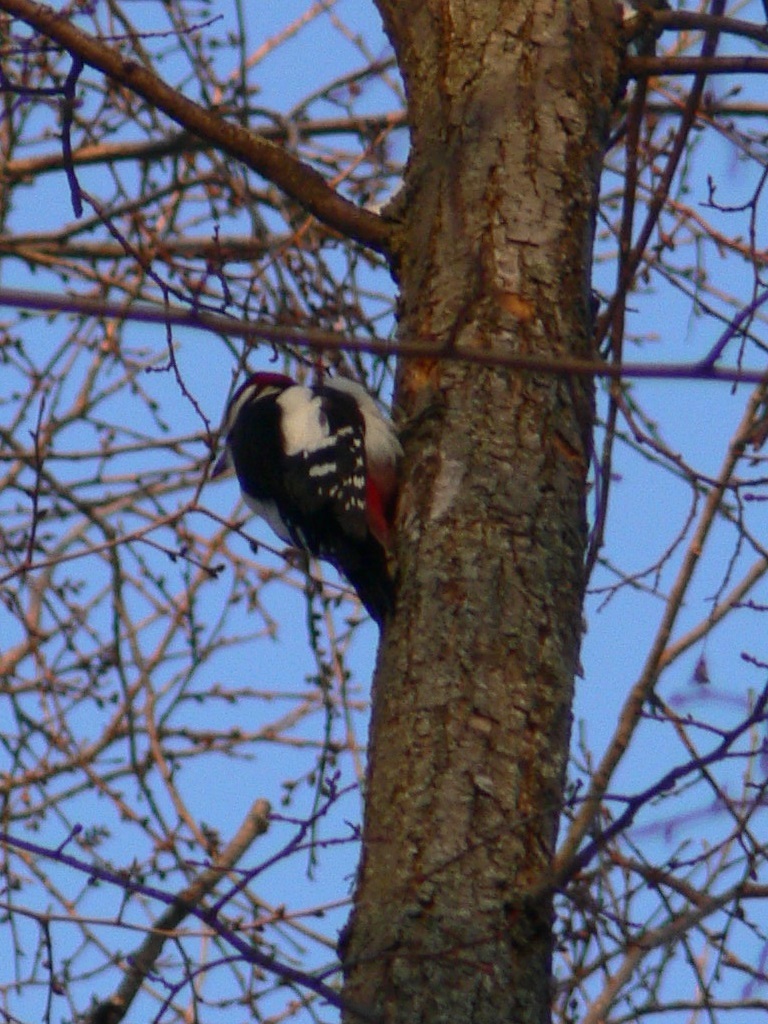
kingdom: Animalia
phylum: Chordata
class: Aves
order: Piciformes
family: Picidae
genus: Dendrocopos
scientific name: Dendrocopos major
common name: Great spotted woodpecker
